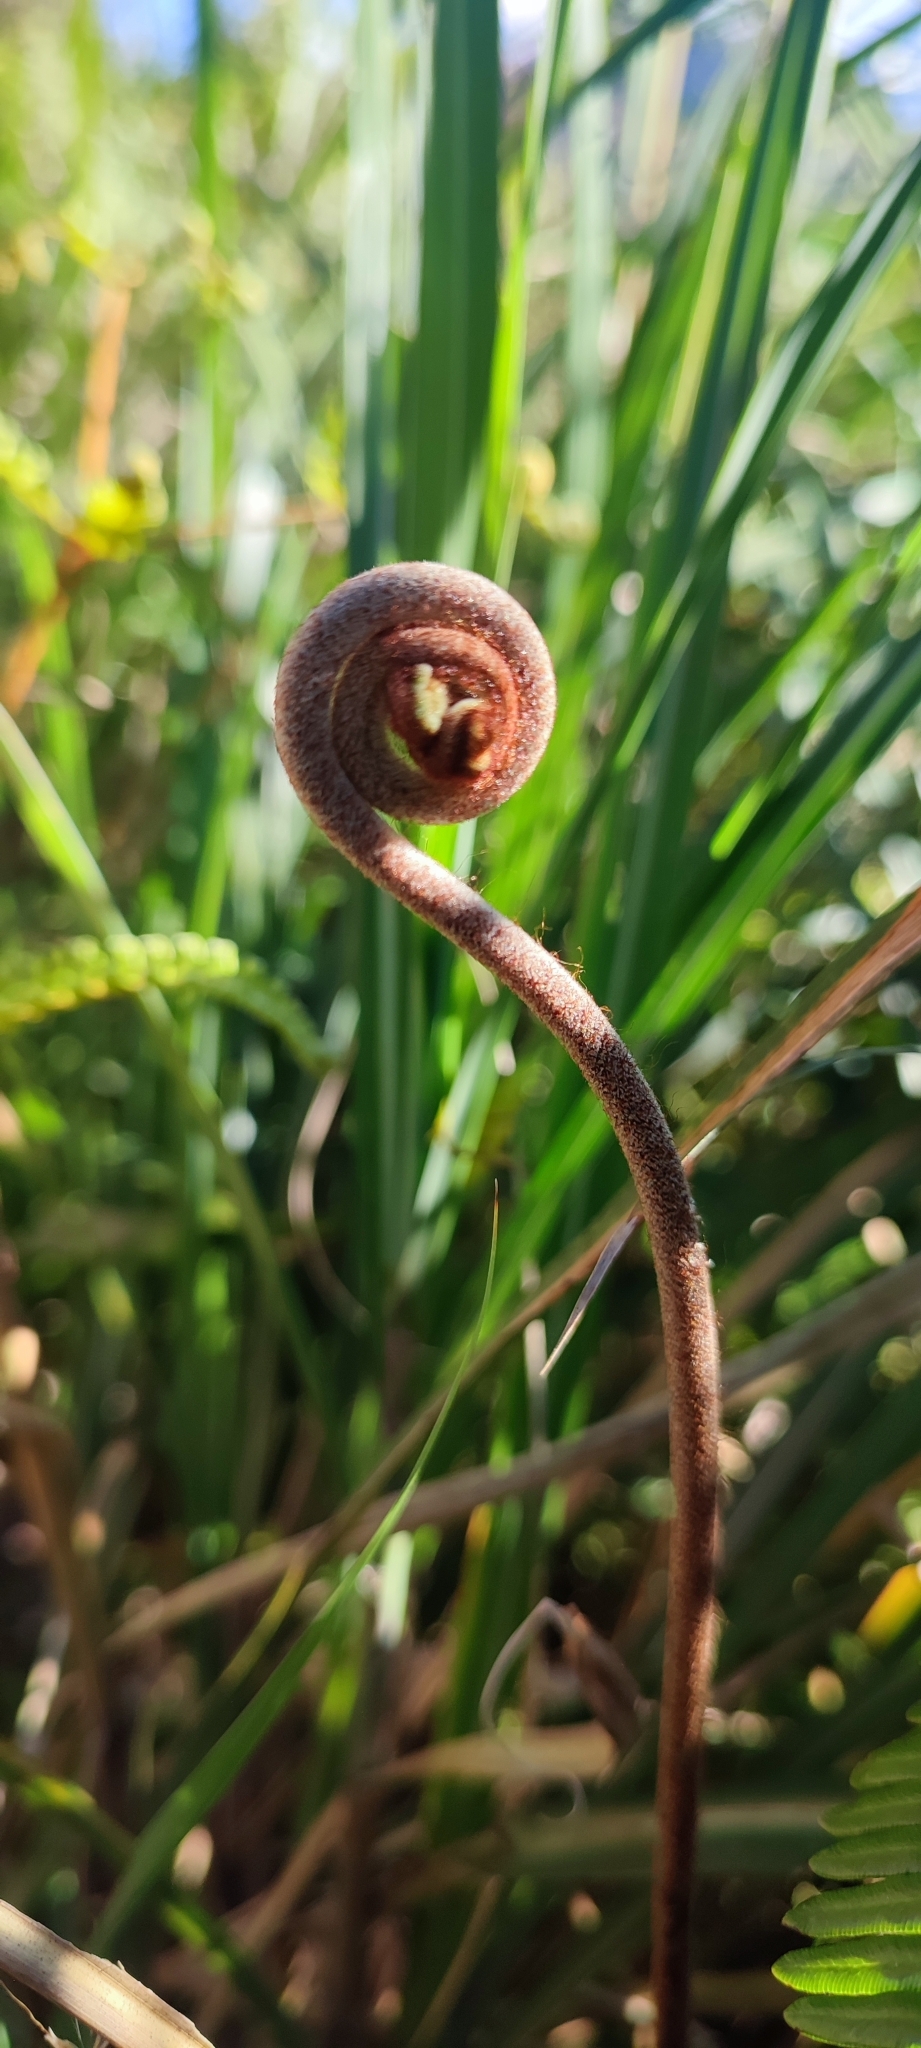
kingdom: Plantae
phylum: Tracheophyta
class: Polypodiopsida
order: Gleicheniales
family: Gleicheniaceae
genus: Dicranopteris
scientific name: Dicranopteris linearis
